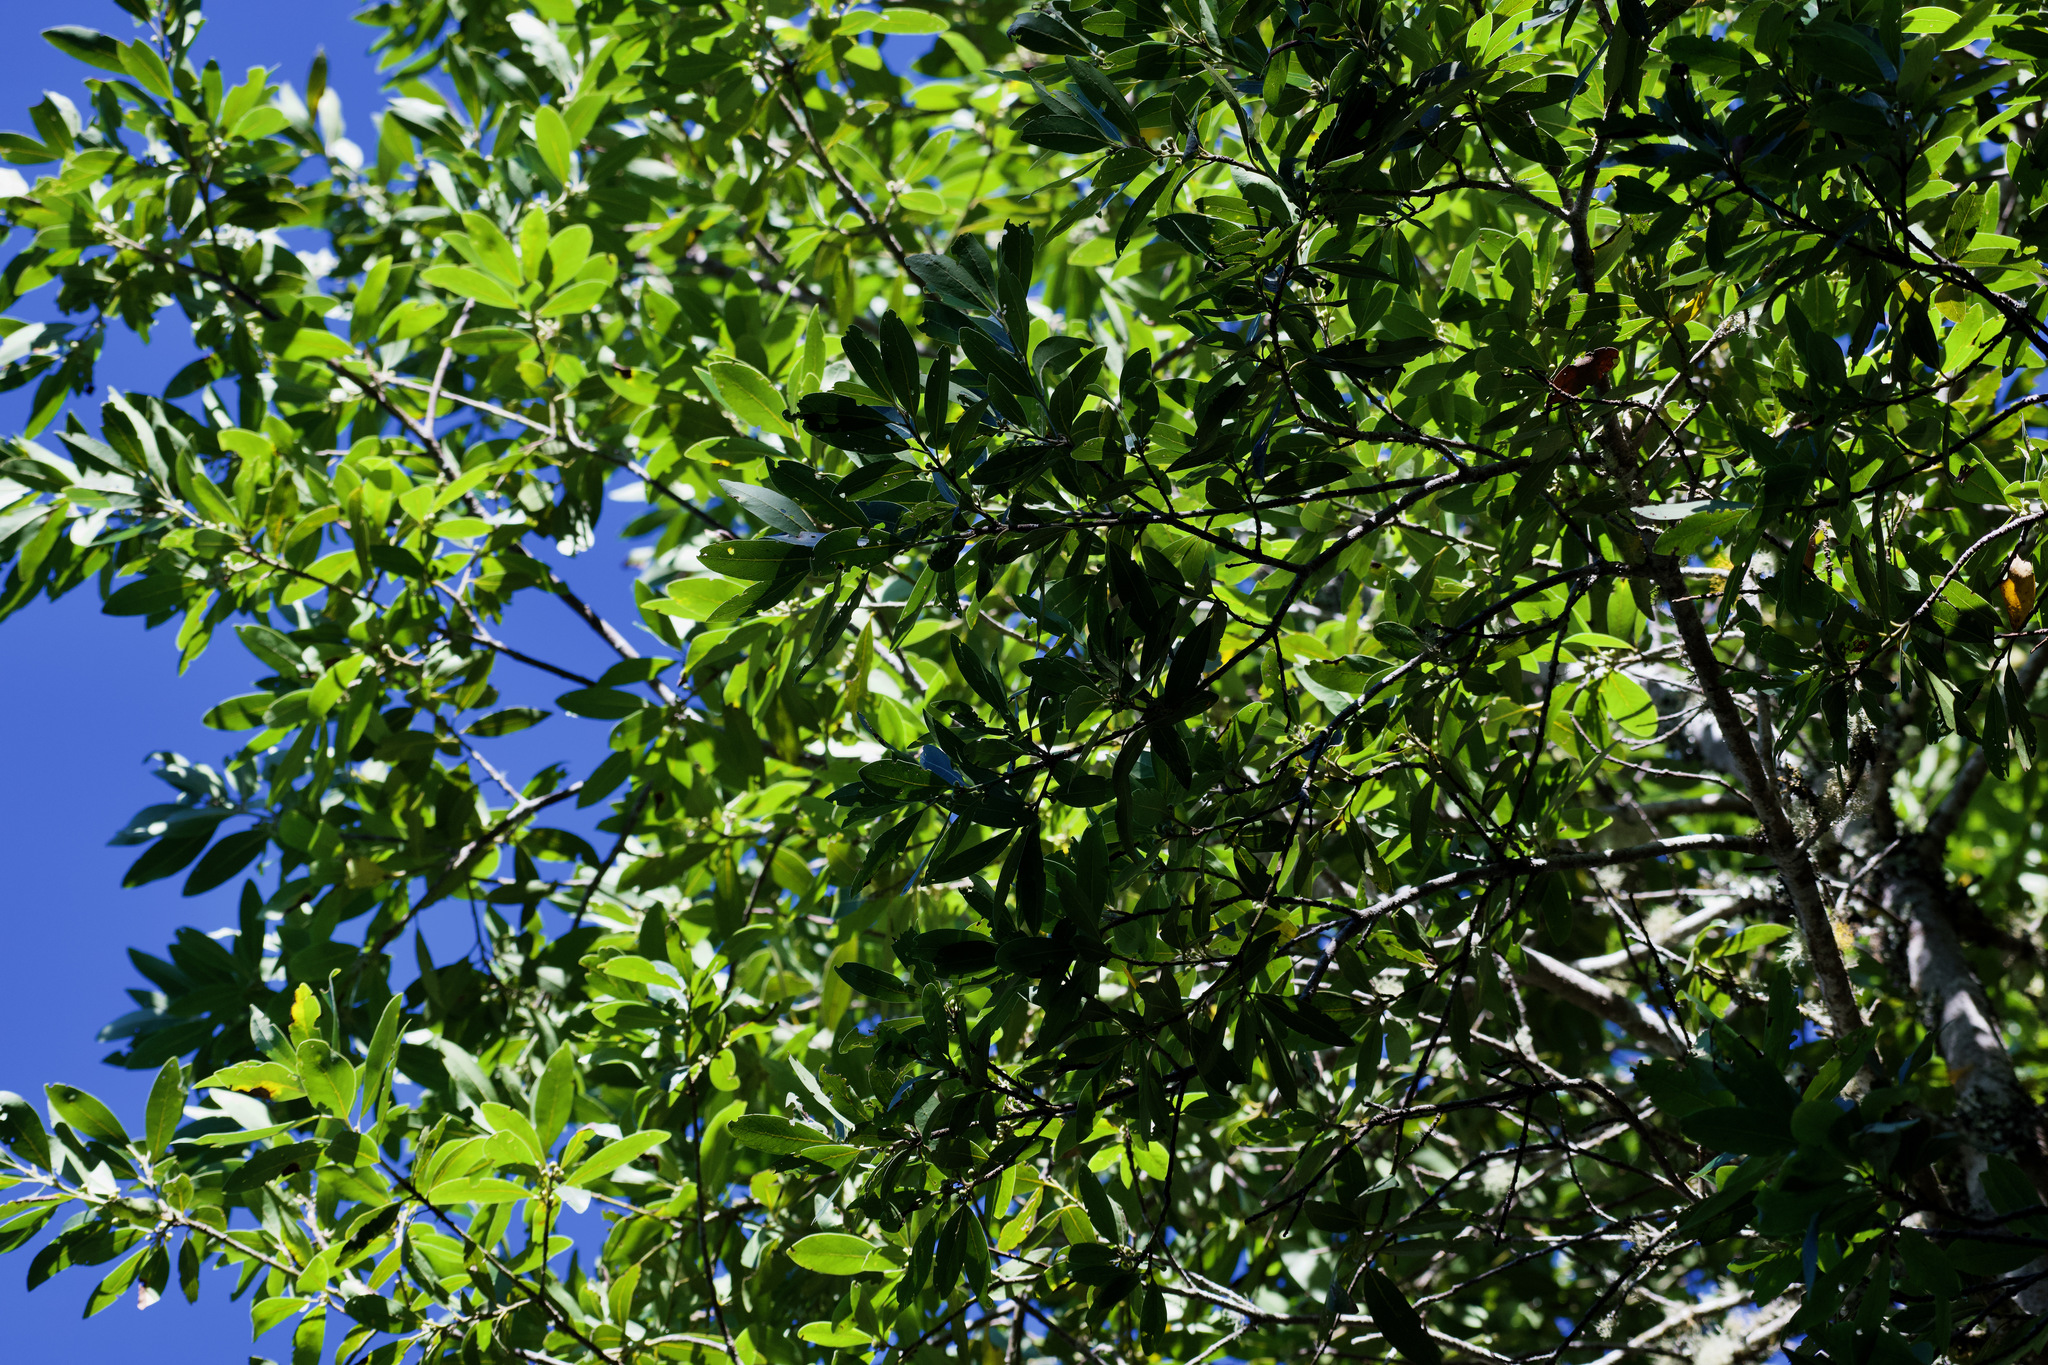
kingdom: Plantae
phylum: Tracheophyta
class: Magnoliopsida
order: Laurales
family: Lauraceae
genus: Laurus
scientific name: Laurus novocanariensis
